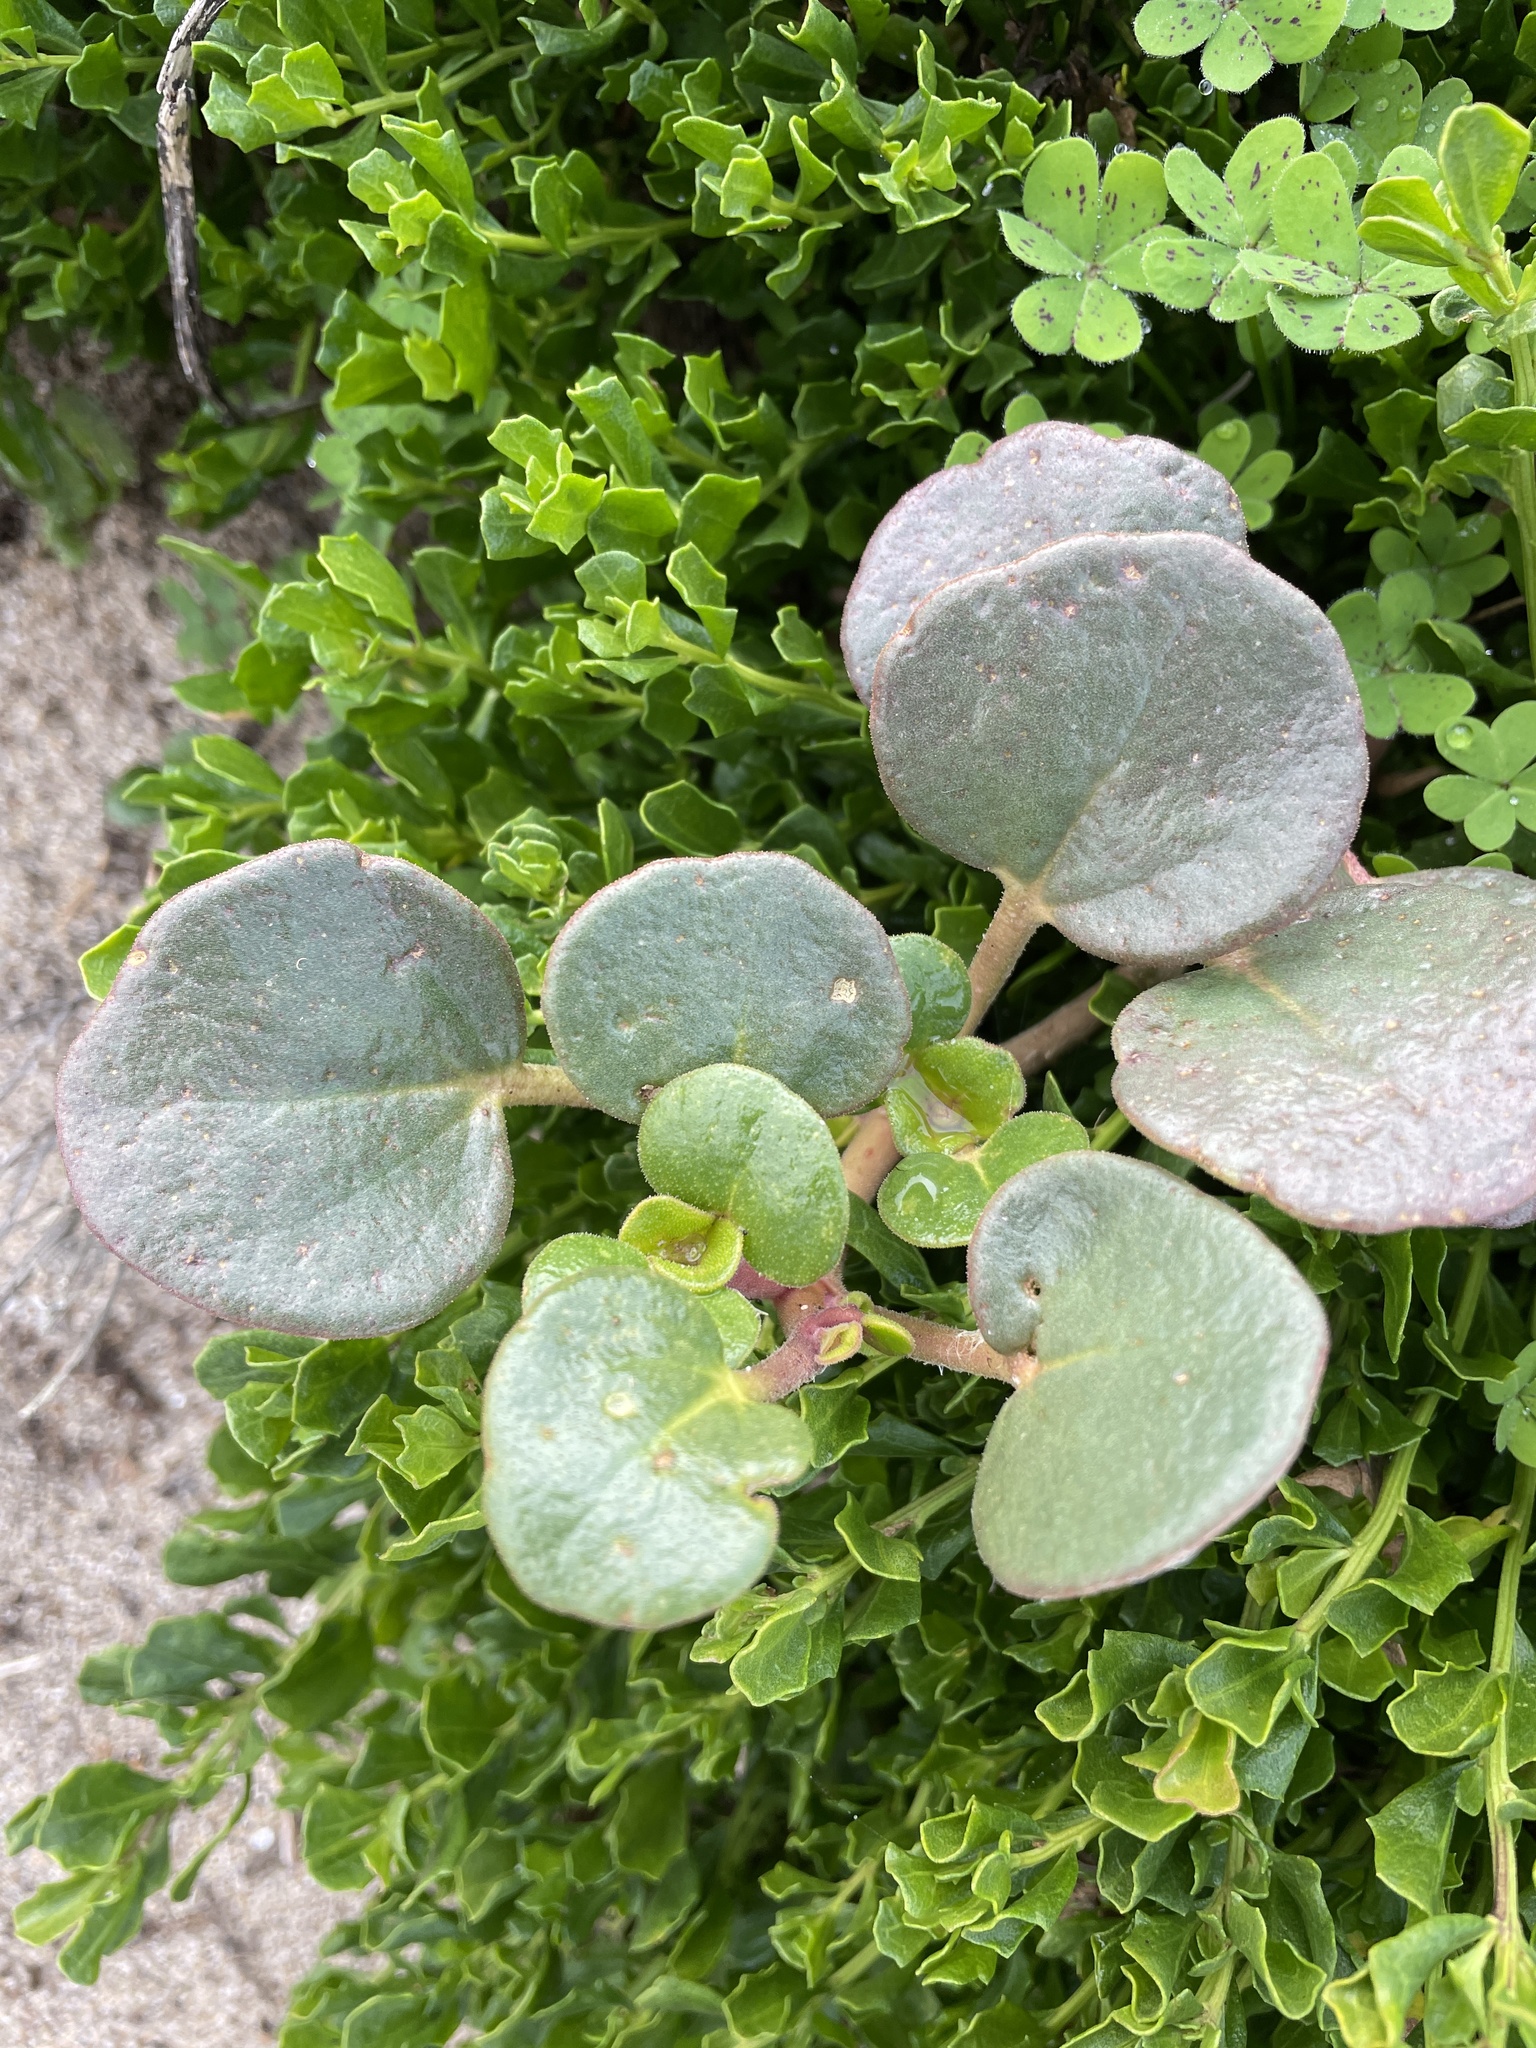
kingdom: Plantae
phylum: Tracheophyta
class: Magnoliopsida
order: Caryophyllales
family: Nyctaginaceae
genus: Abronia
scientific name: Abronia latifolia
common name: Yellow sand-verbena
